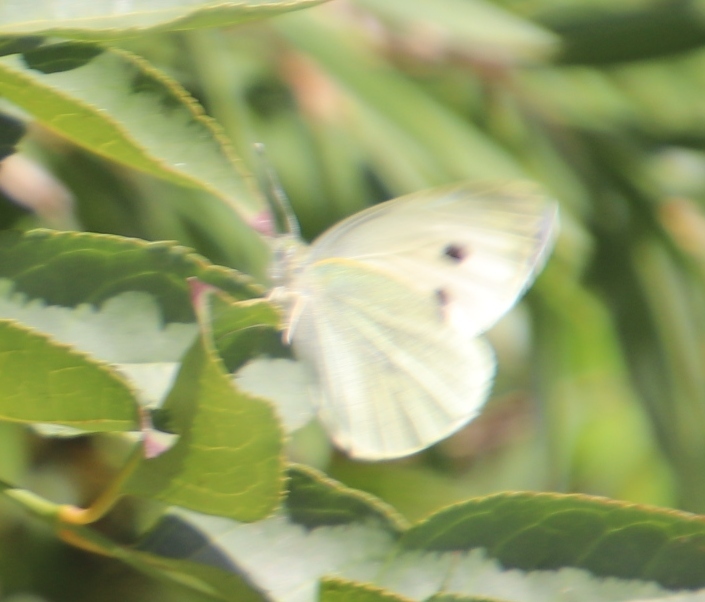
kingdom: Animalia
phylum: Arthropoda
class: Insecta
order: Lepidoptera
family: Pieridae
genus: Pieris
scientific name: Pieris brassicae
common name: Large white
